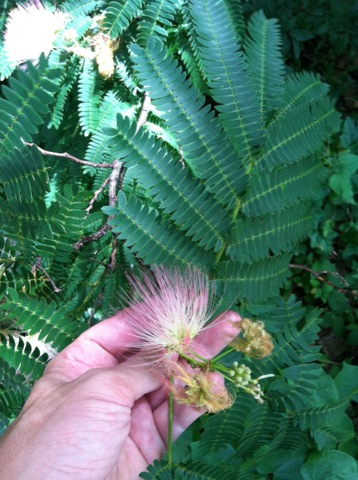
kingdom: Plantae
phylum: Tracheophyta
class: Magnoliopsida
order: Fabales
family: Fabaceae
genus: Albizia
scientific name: Albizia julibrissin
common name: Silktree
